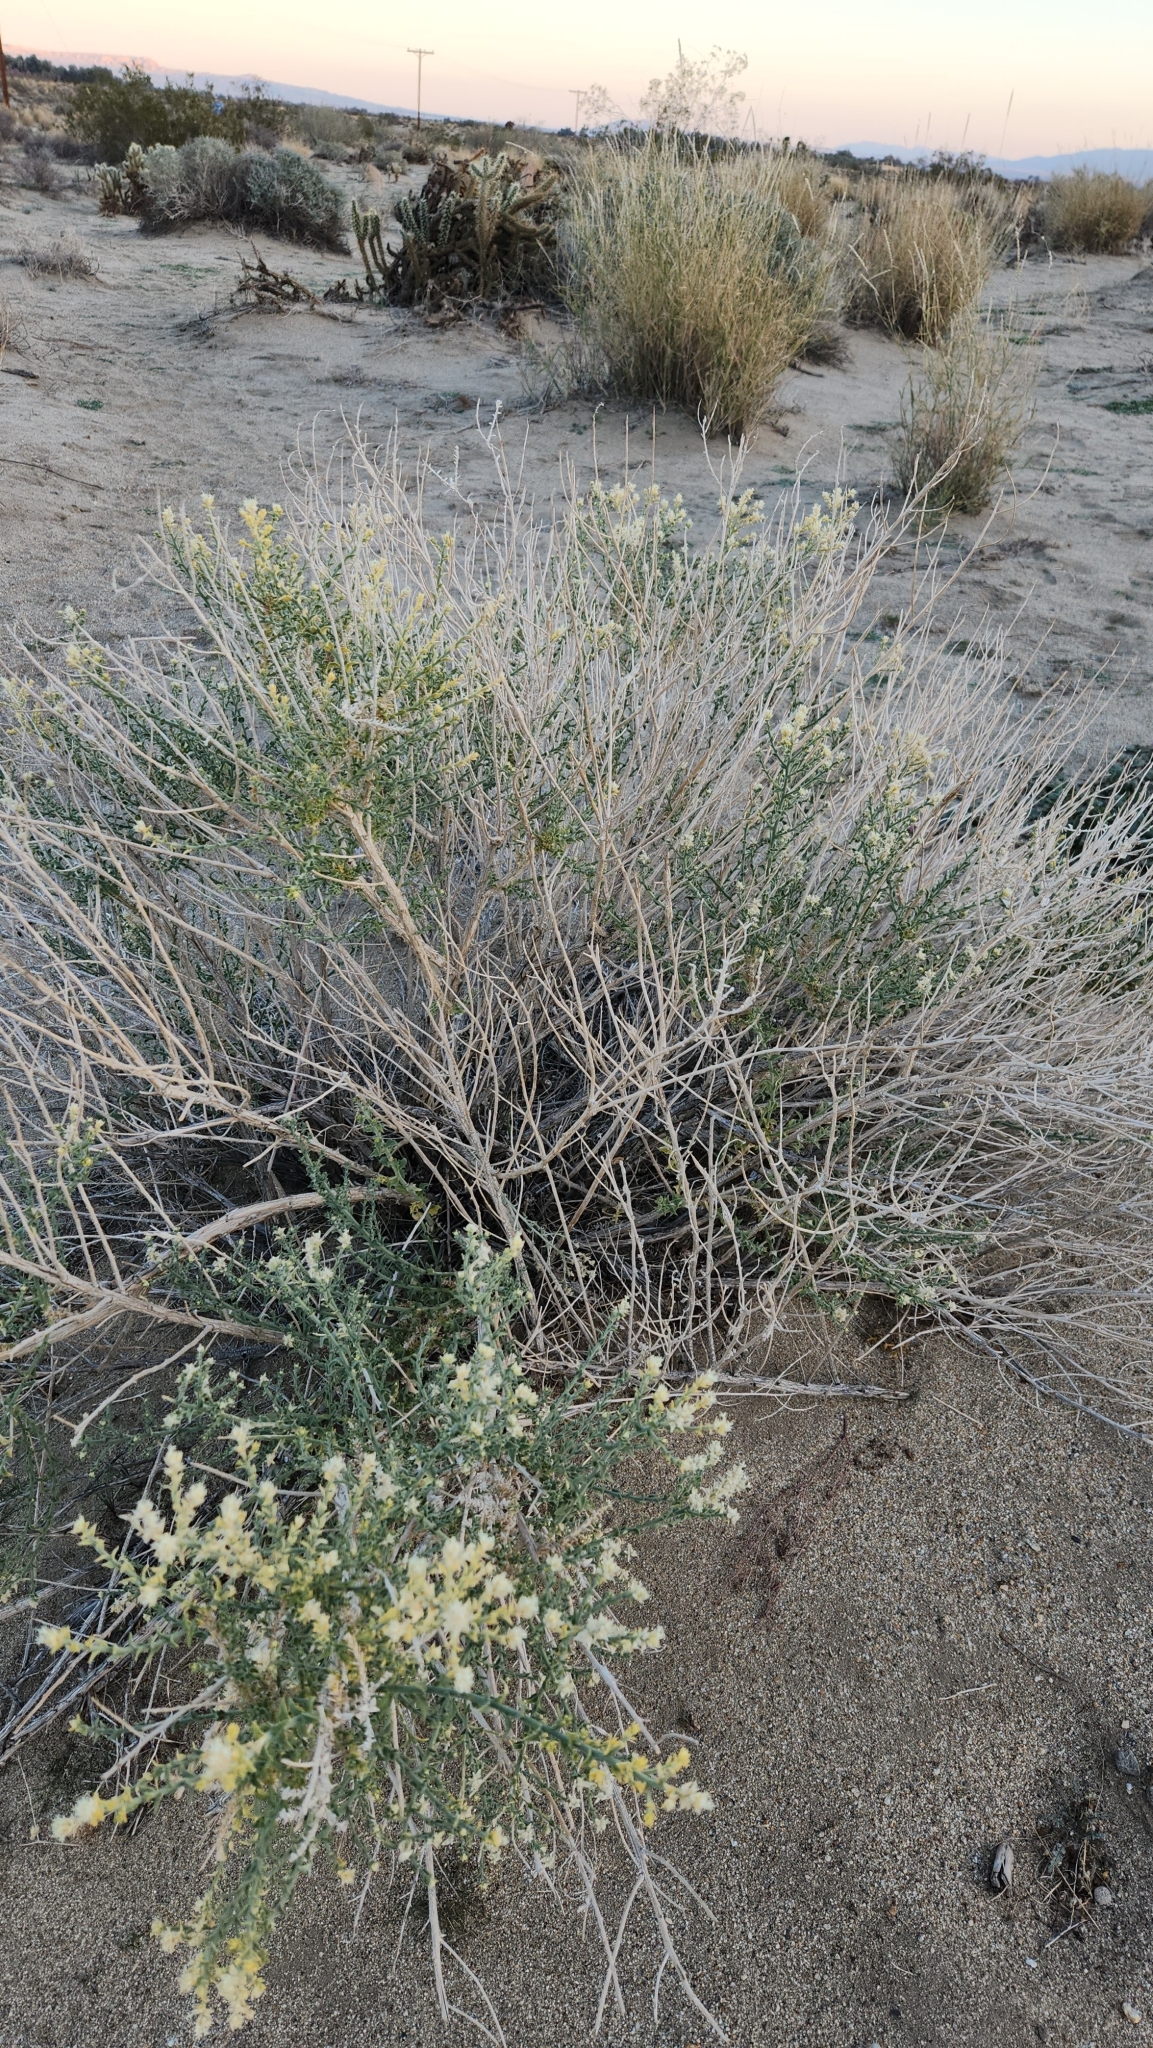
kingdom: Plantae
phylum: Tracheophyta
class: Magnoliopsida
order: Cornales
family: Loasaceae
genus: Petalonyx
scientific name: Petalonyx thurberi
